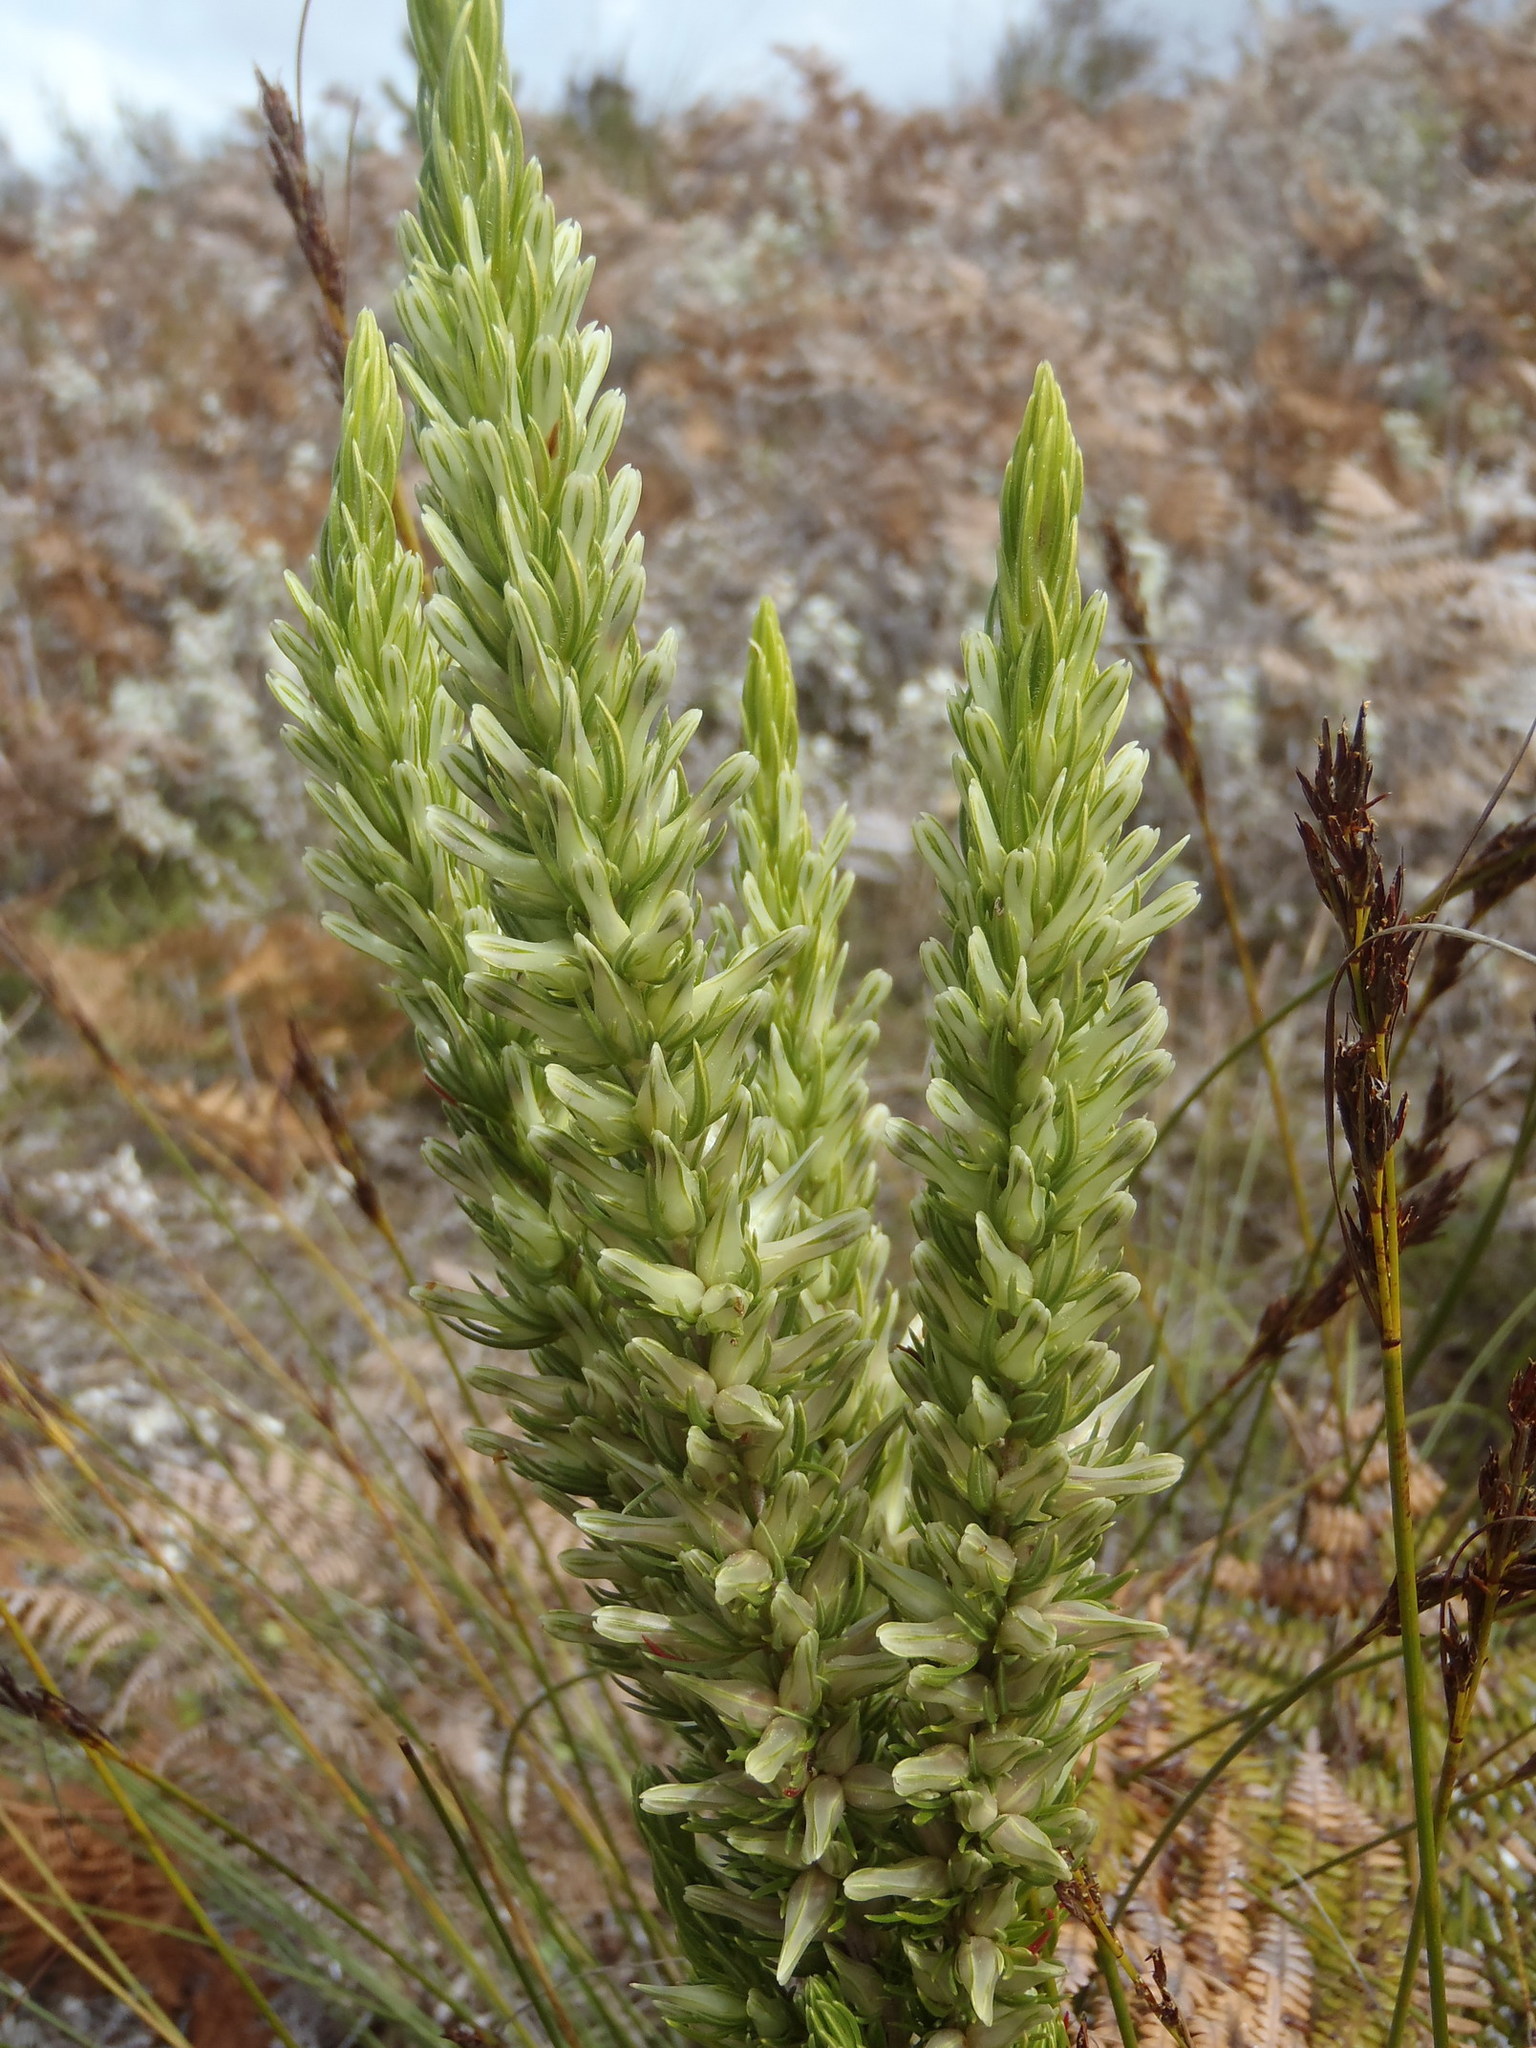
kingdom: Plantae
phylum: Tracheophyta
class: Magnoliopsida
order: Ericales
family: Ericaceae
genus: Erica
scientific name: Erica nabea
